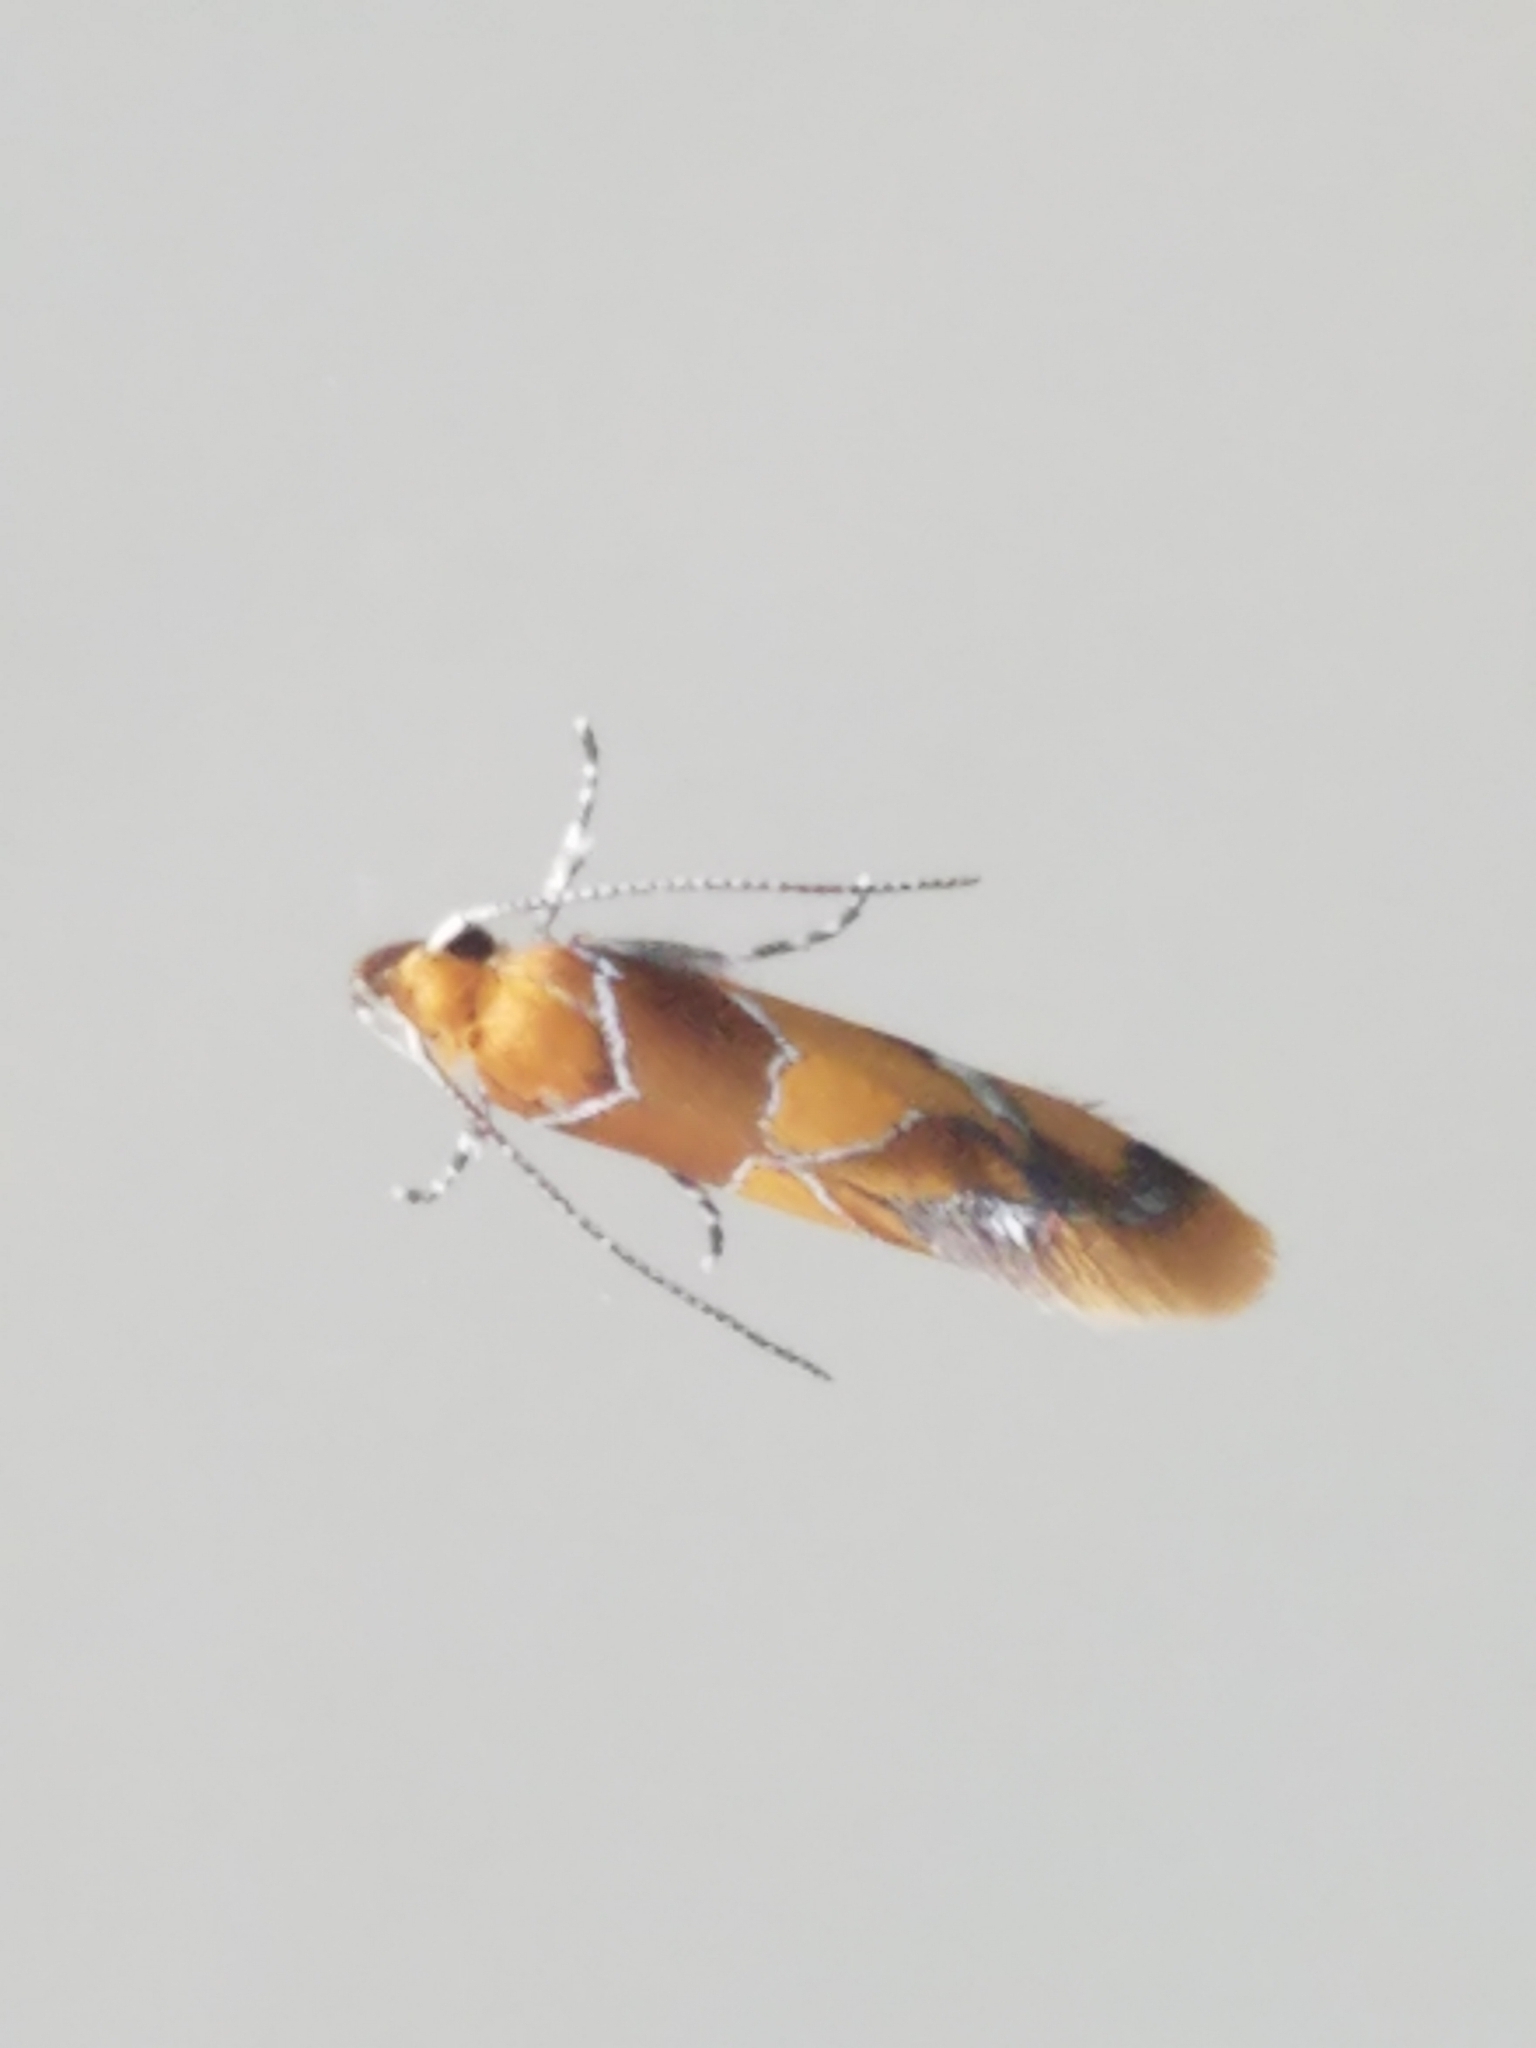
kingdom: Animalia
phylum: Arthropoda
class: Insecta
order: Lepidoptera
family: Oecophoridae
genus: Callima
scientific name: Callima argenticinctella
